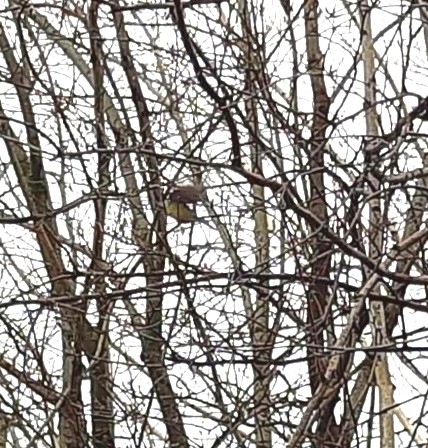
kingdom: Animalia
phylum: Chordata
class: Aves
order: Passeriformes
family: Paridae
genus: Parus
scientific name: Parus major
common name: Great tit
